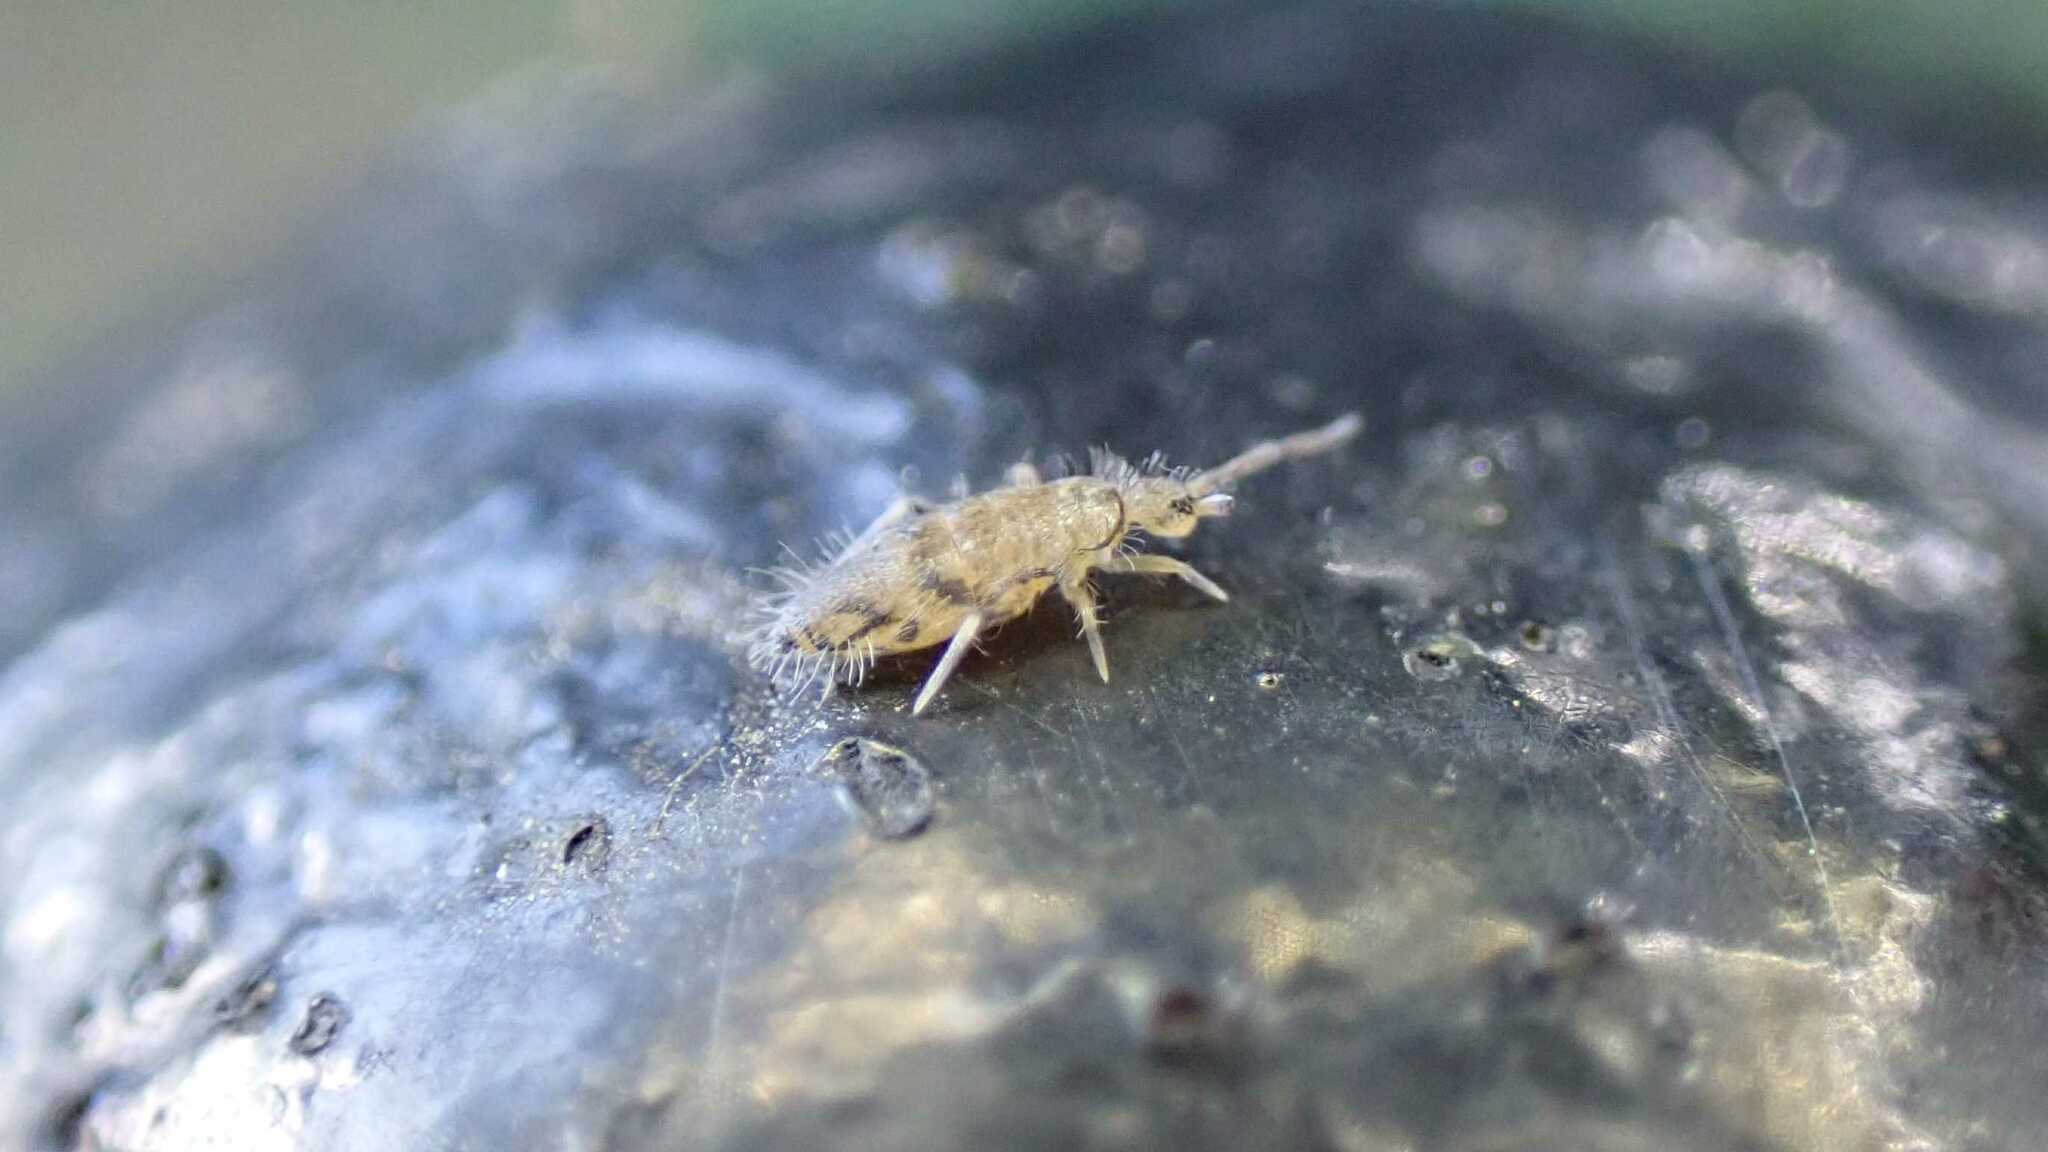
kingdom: Animalia
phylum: Arthropoda
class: Collembola
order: Entomobryomorpha
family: Entomobryidae
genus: Willowsia
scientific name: Willowsia nigromaculata
